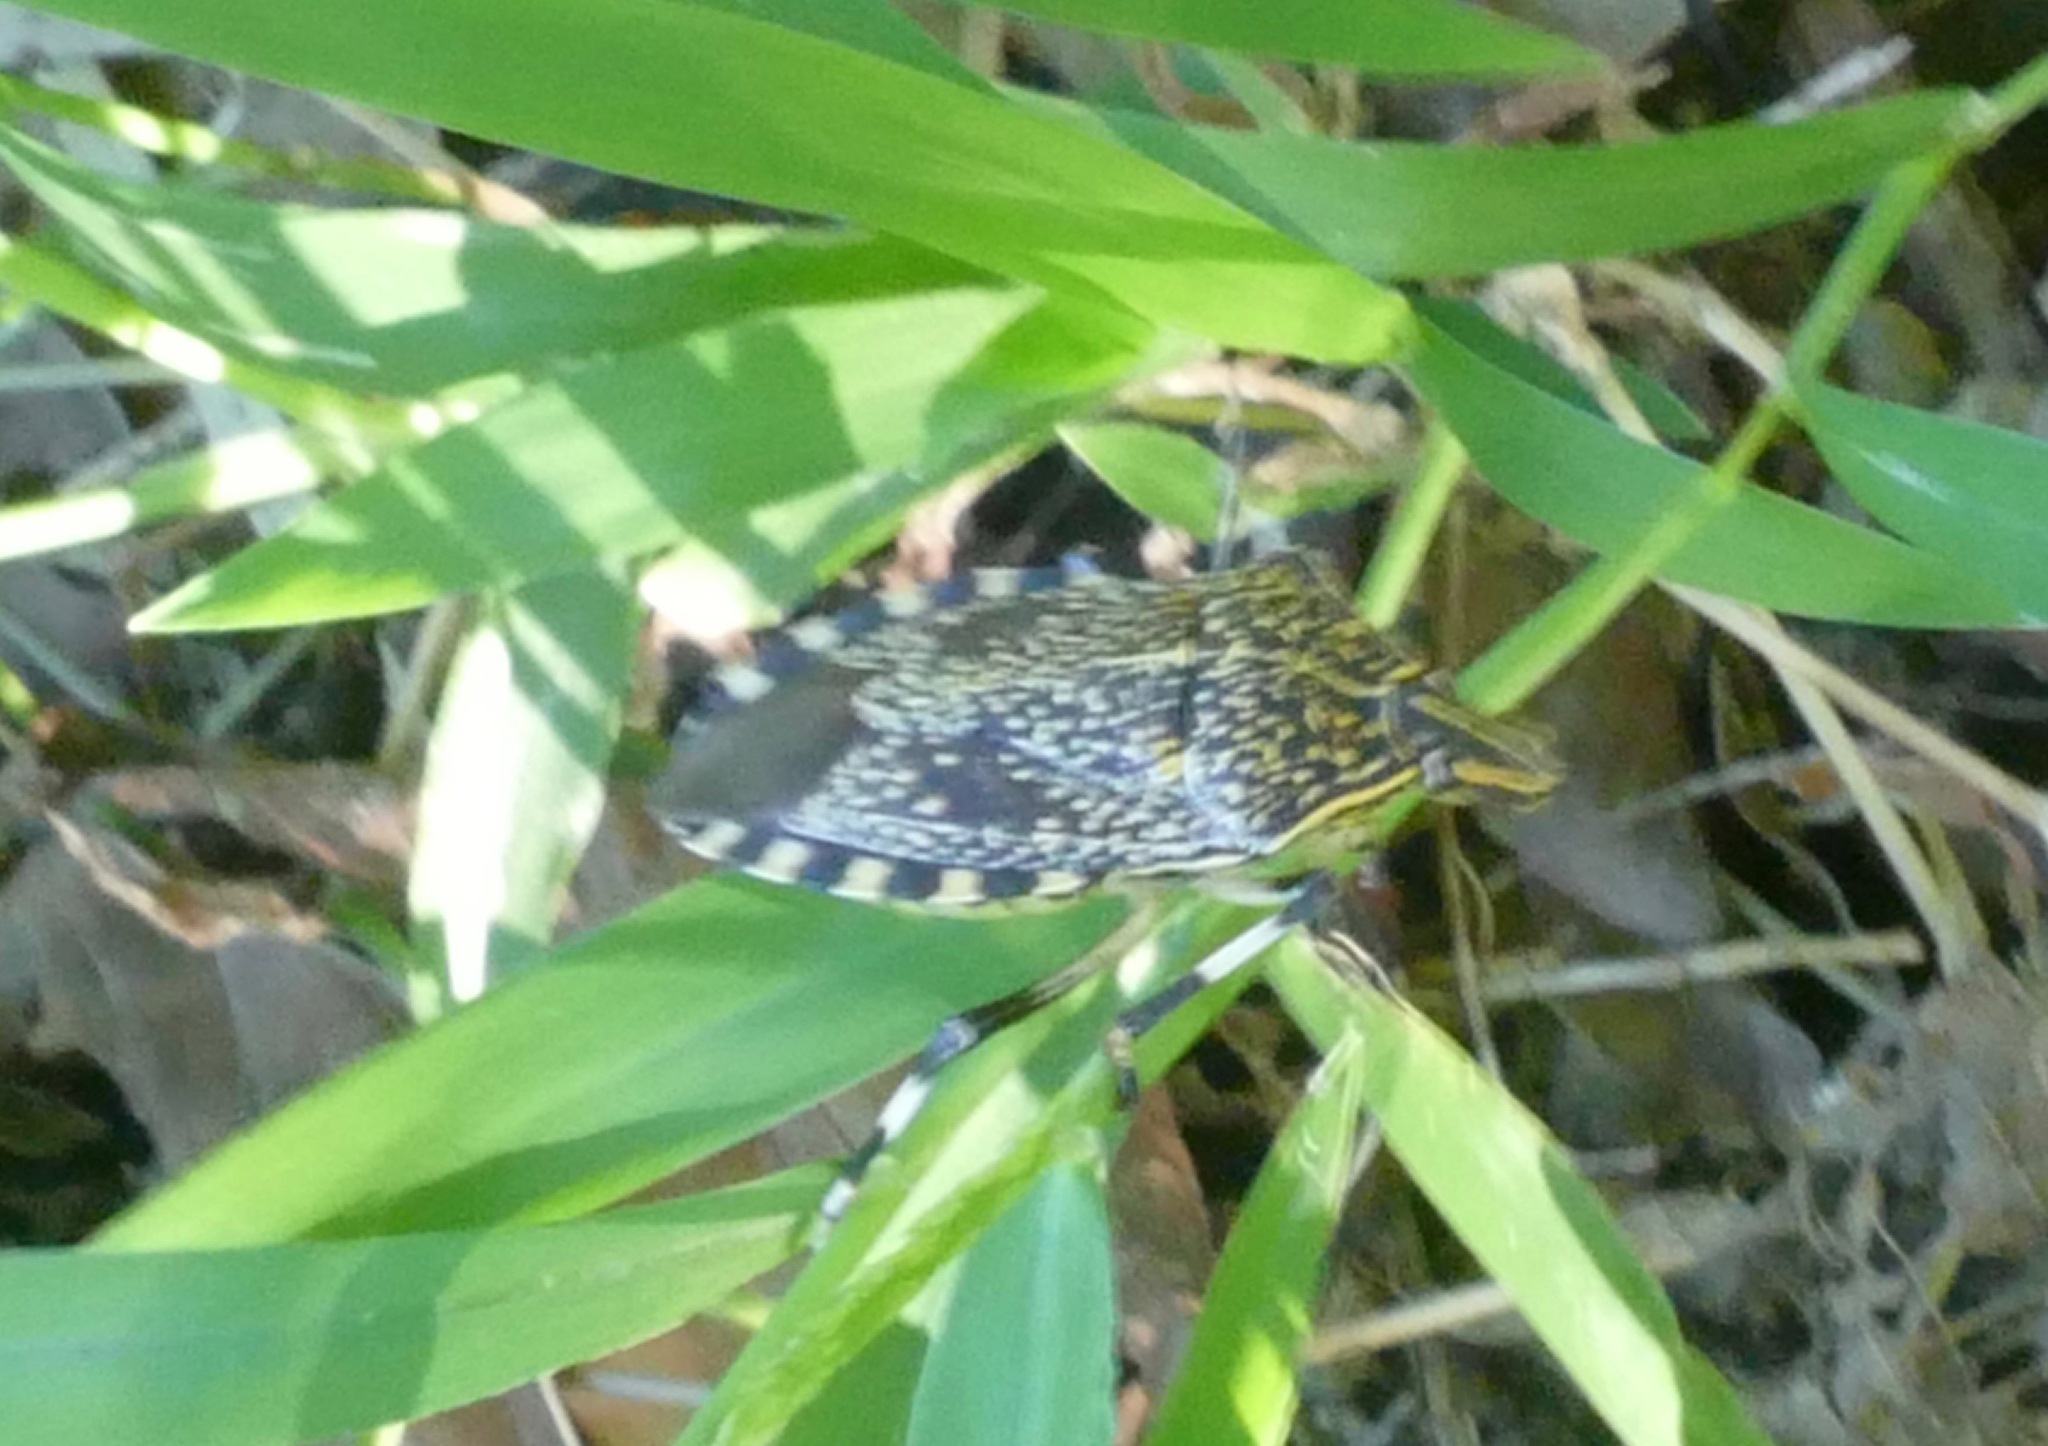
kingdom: Animalia
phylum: Arthropoda
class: Insecta
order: Hemiptera
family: Pentatomidae
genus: Erthesina
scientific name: Erthesina fullo
